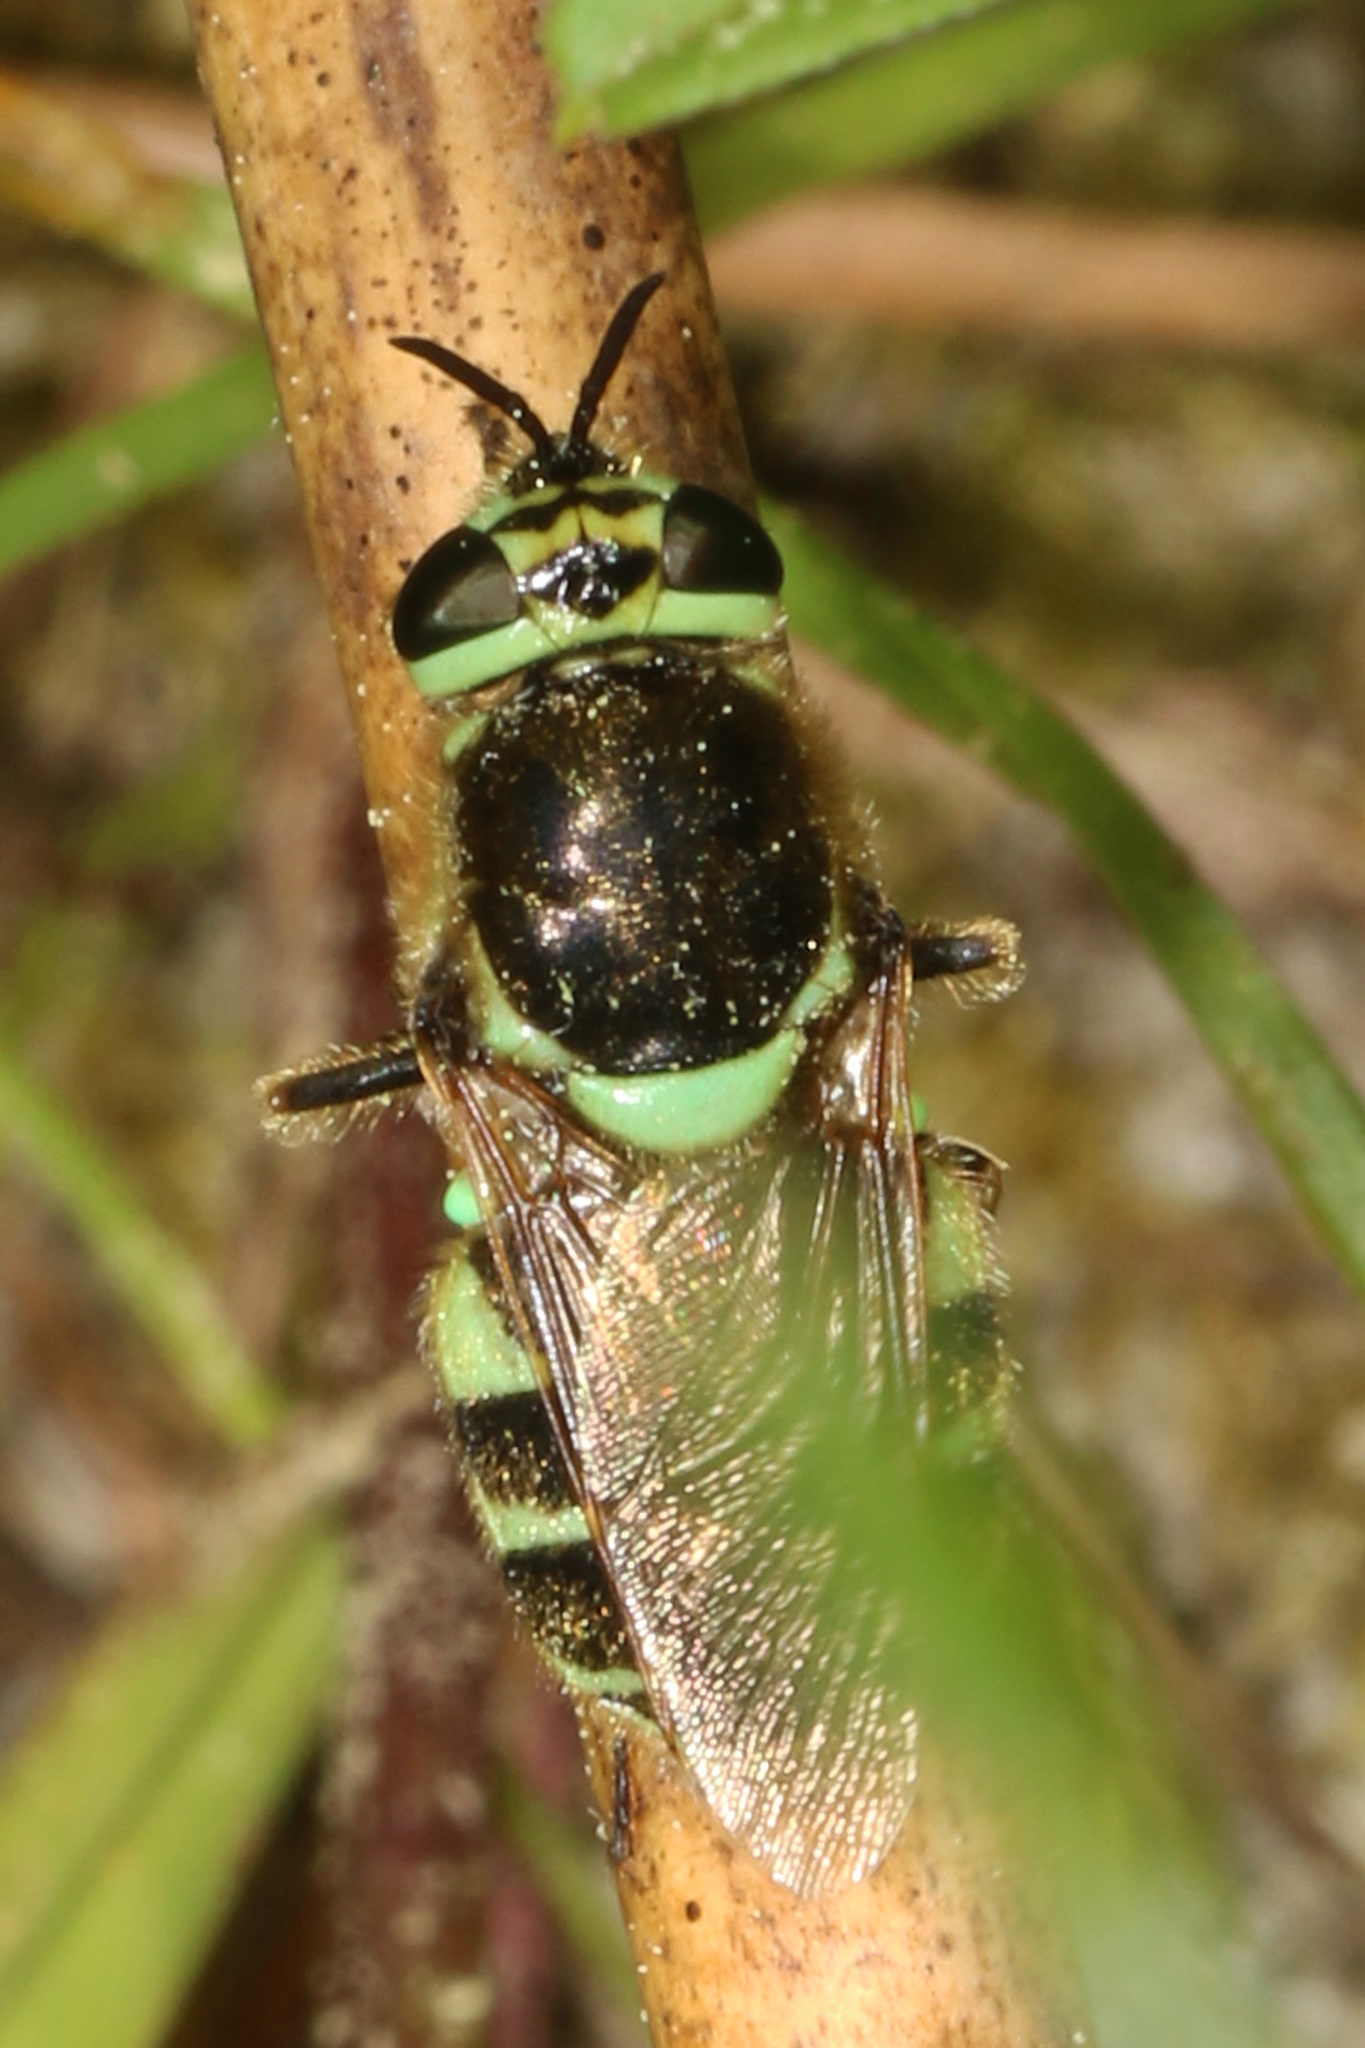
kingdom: Animalia
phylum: Arthropoda
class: Insecta
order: Diptera
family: Stratiomyidae
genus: Psellidotus
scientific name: Psellidotus hieroglyphicus
